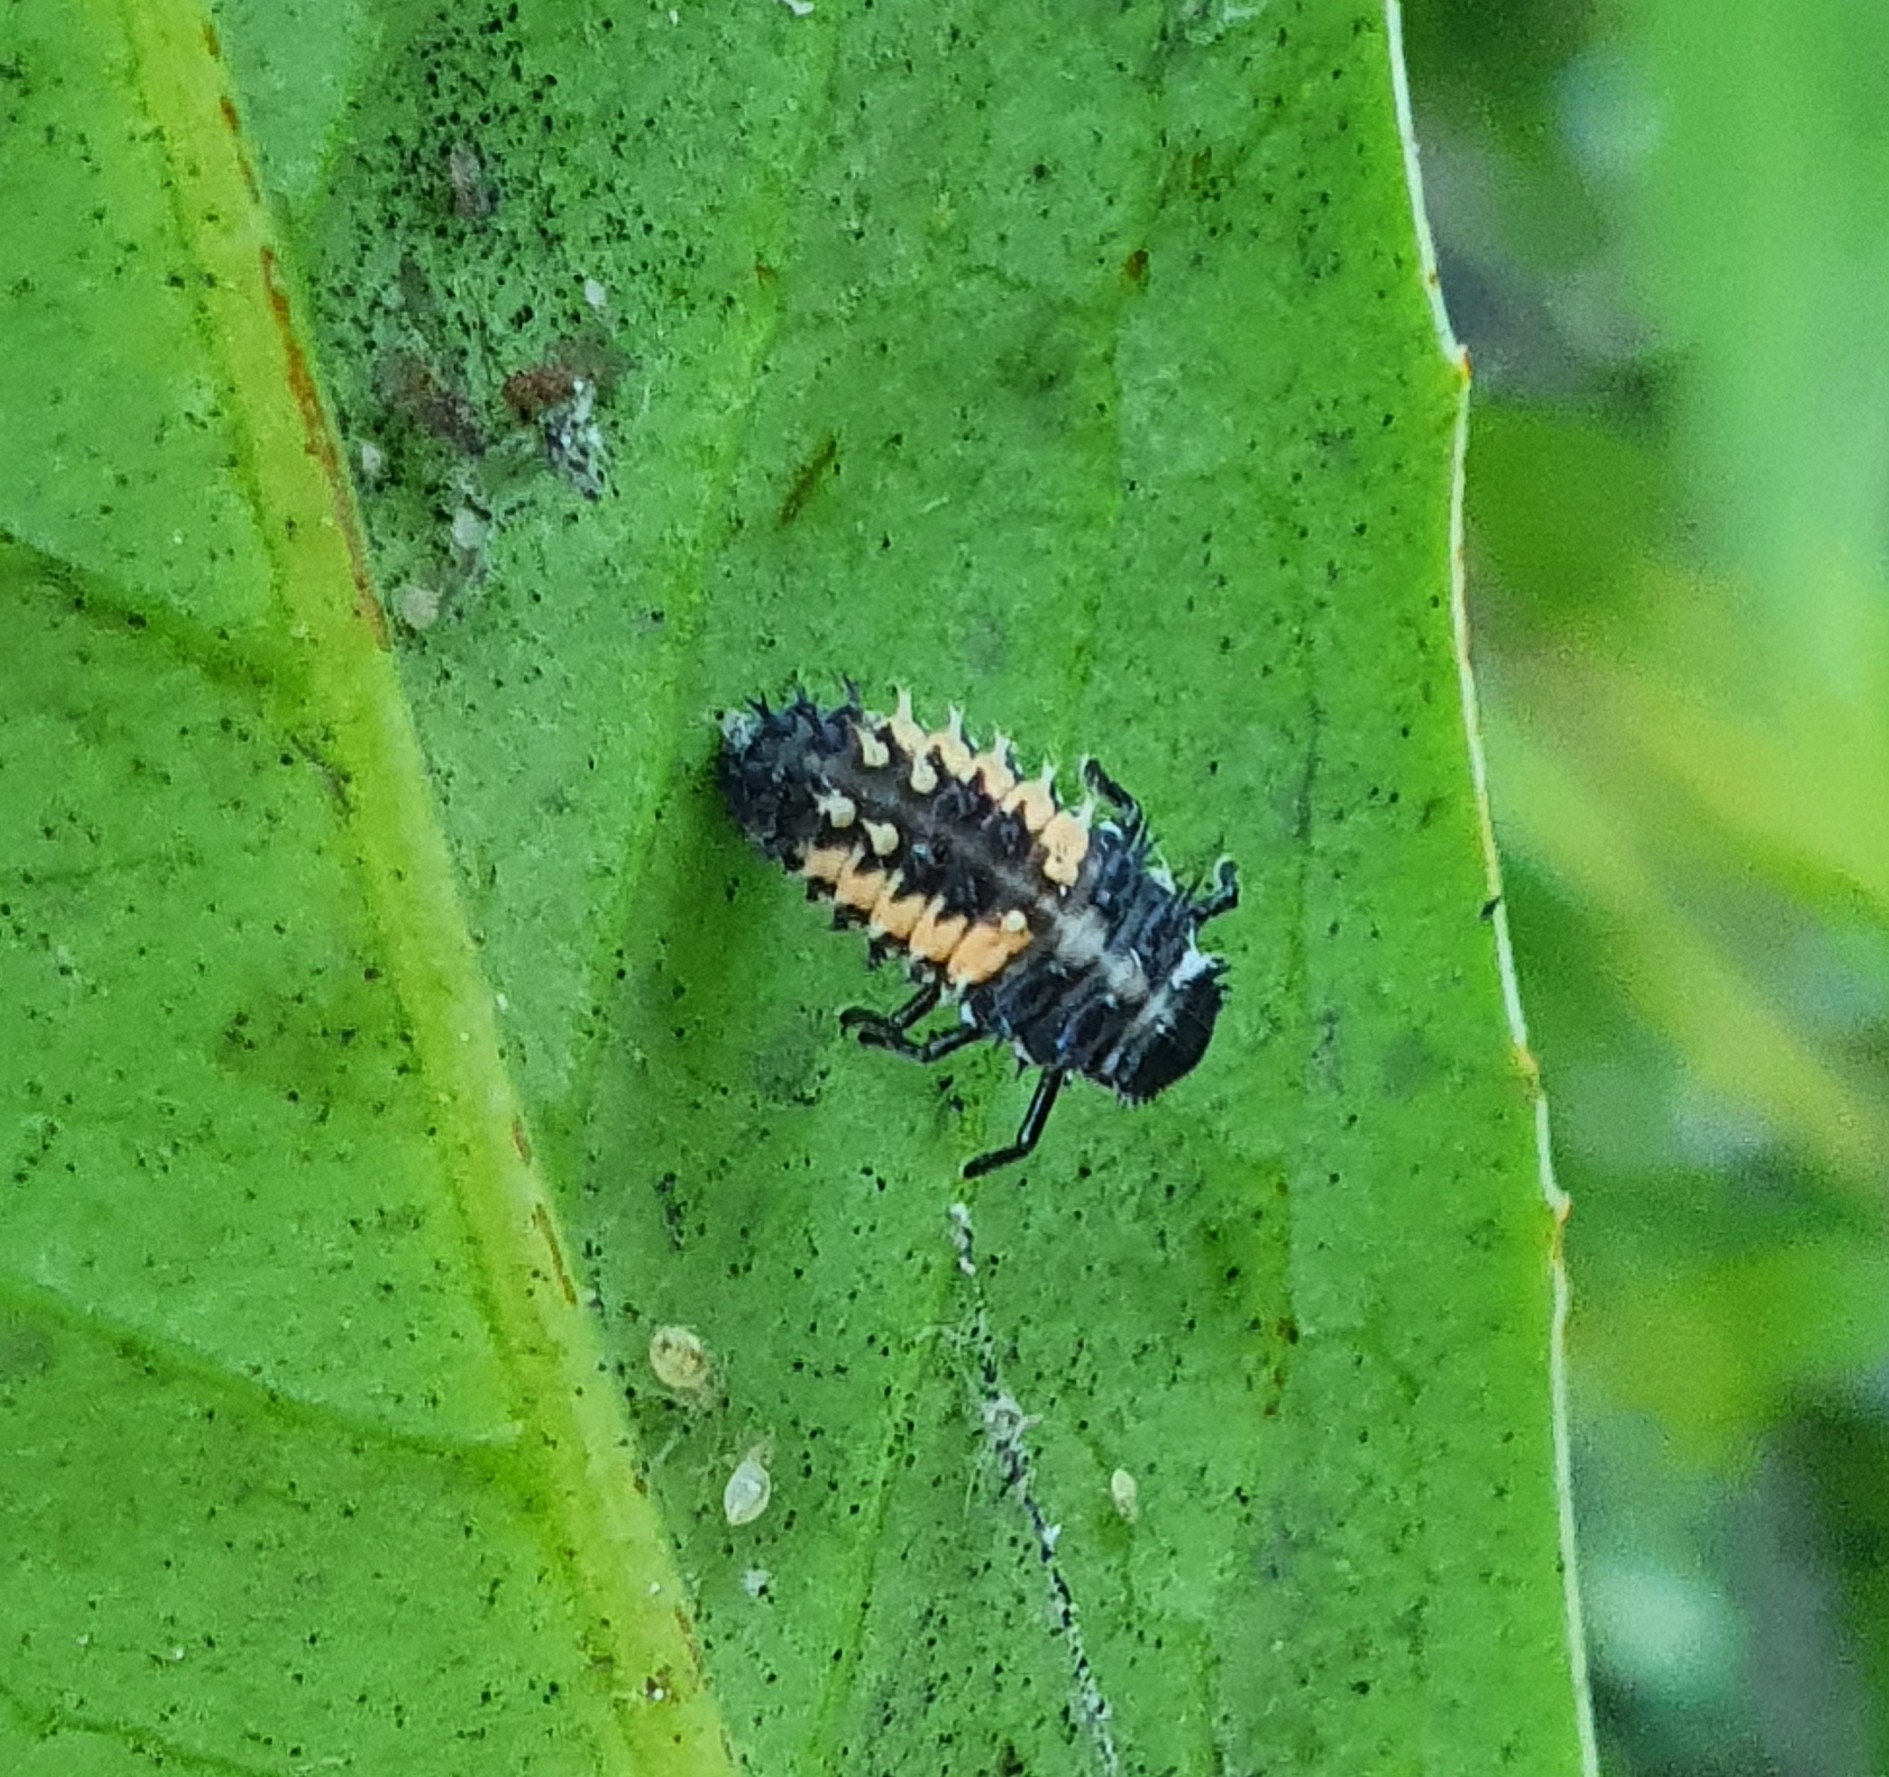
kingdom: Animalia
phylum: Arthropoda
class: Insecta
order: Coleoptera
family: Coccinellidae
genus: Harmonia
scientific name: Harmonia axyridis
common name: Harlequin ladybird
